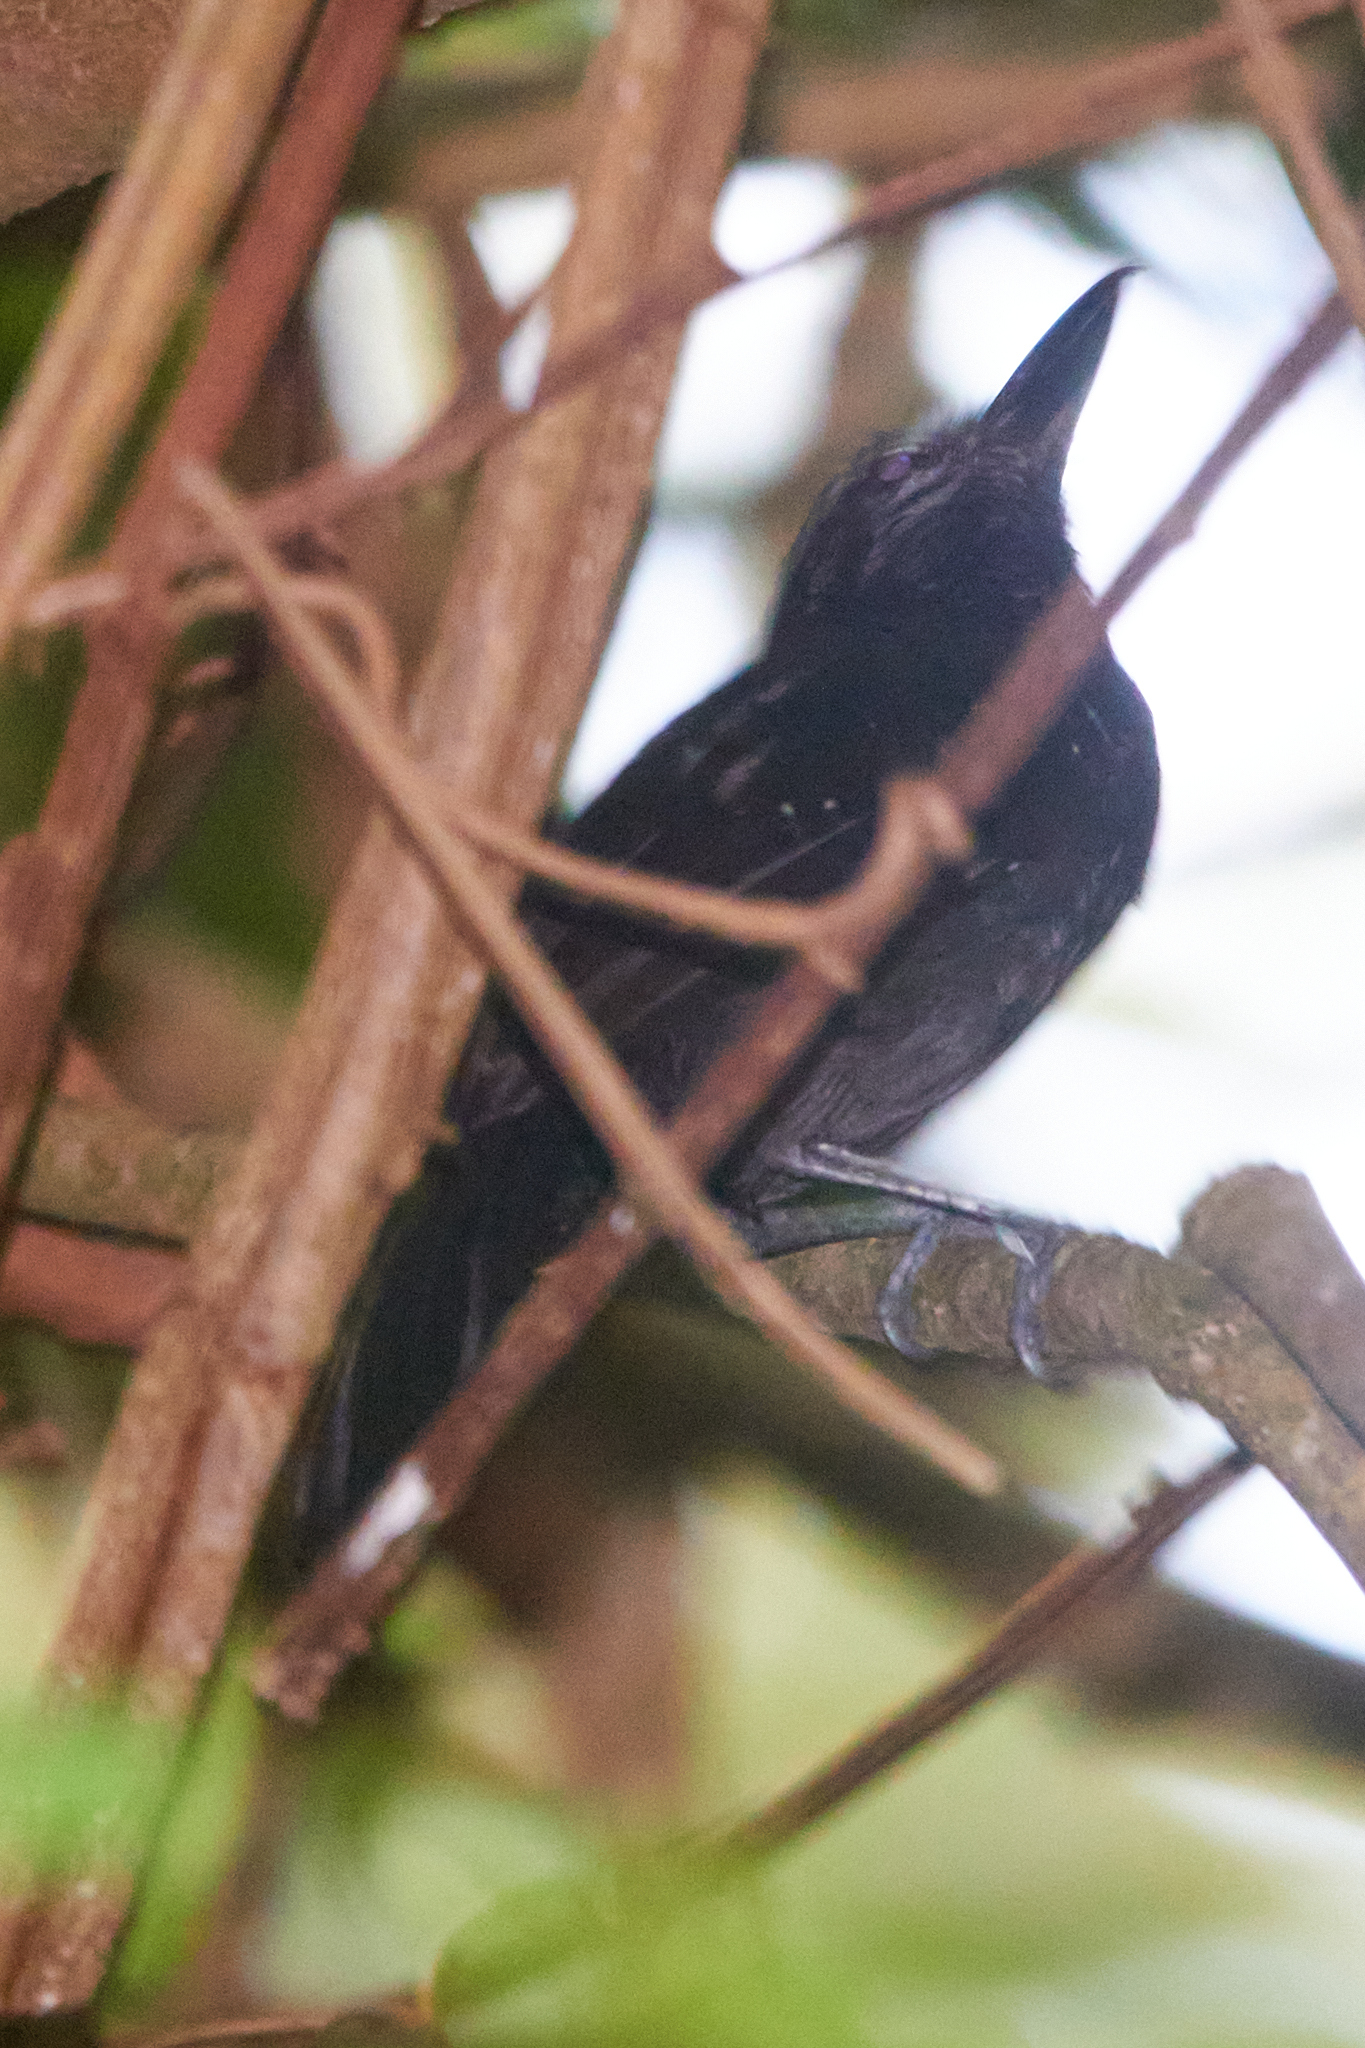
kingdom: Animalia
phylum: Chordata
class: Aves
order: Passeriformes
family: Thamnophilidae
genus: Thamnophilus
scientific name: Thamnophilus bridgesi
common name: Black-hooded antshrike
